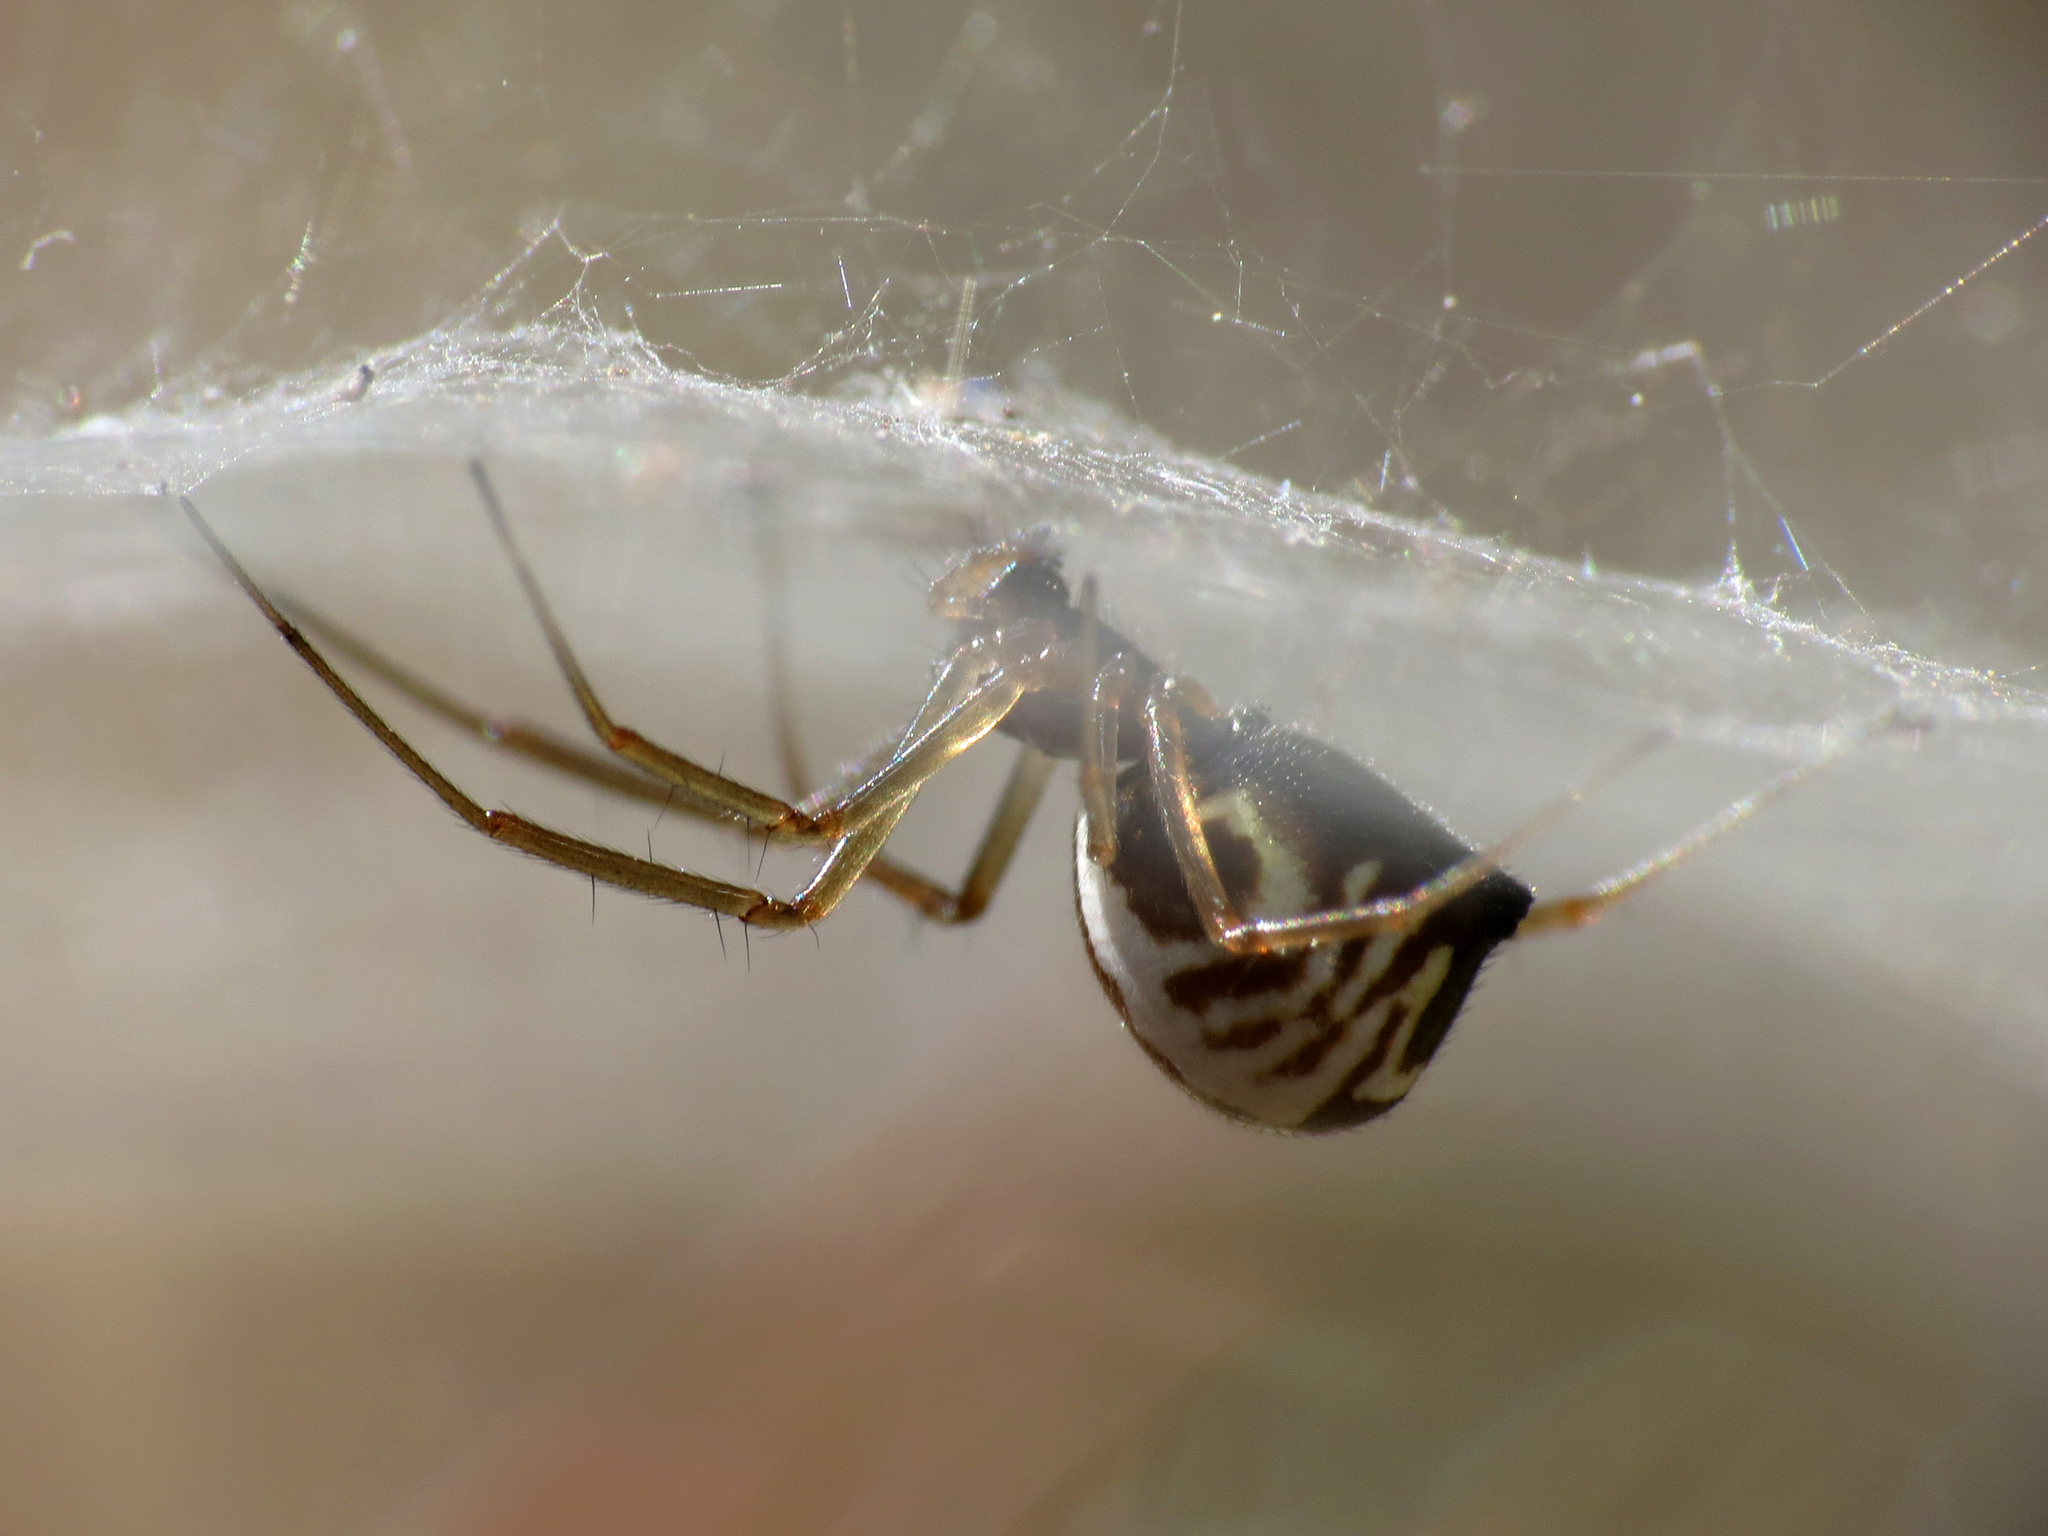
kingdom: Animalia
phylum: Arthropoda
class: Arachnida
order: Araneae
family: Linyphiidae
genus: Frontinella
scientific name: Frontinella pyramitela
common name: Bowl-and-doily spider
